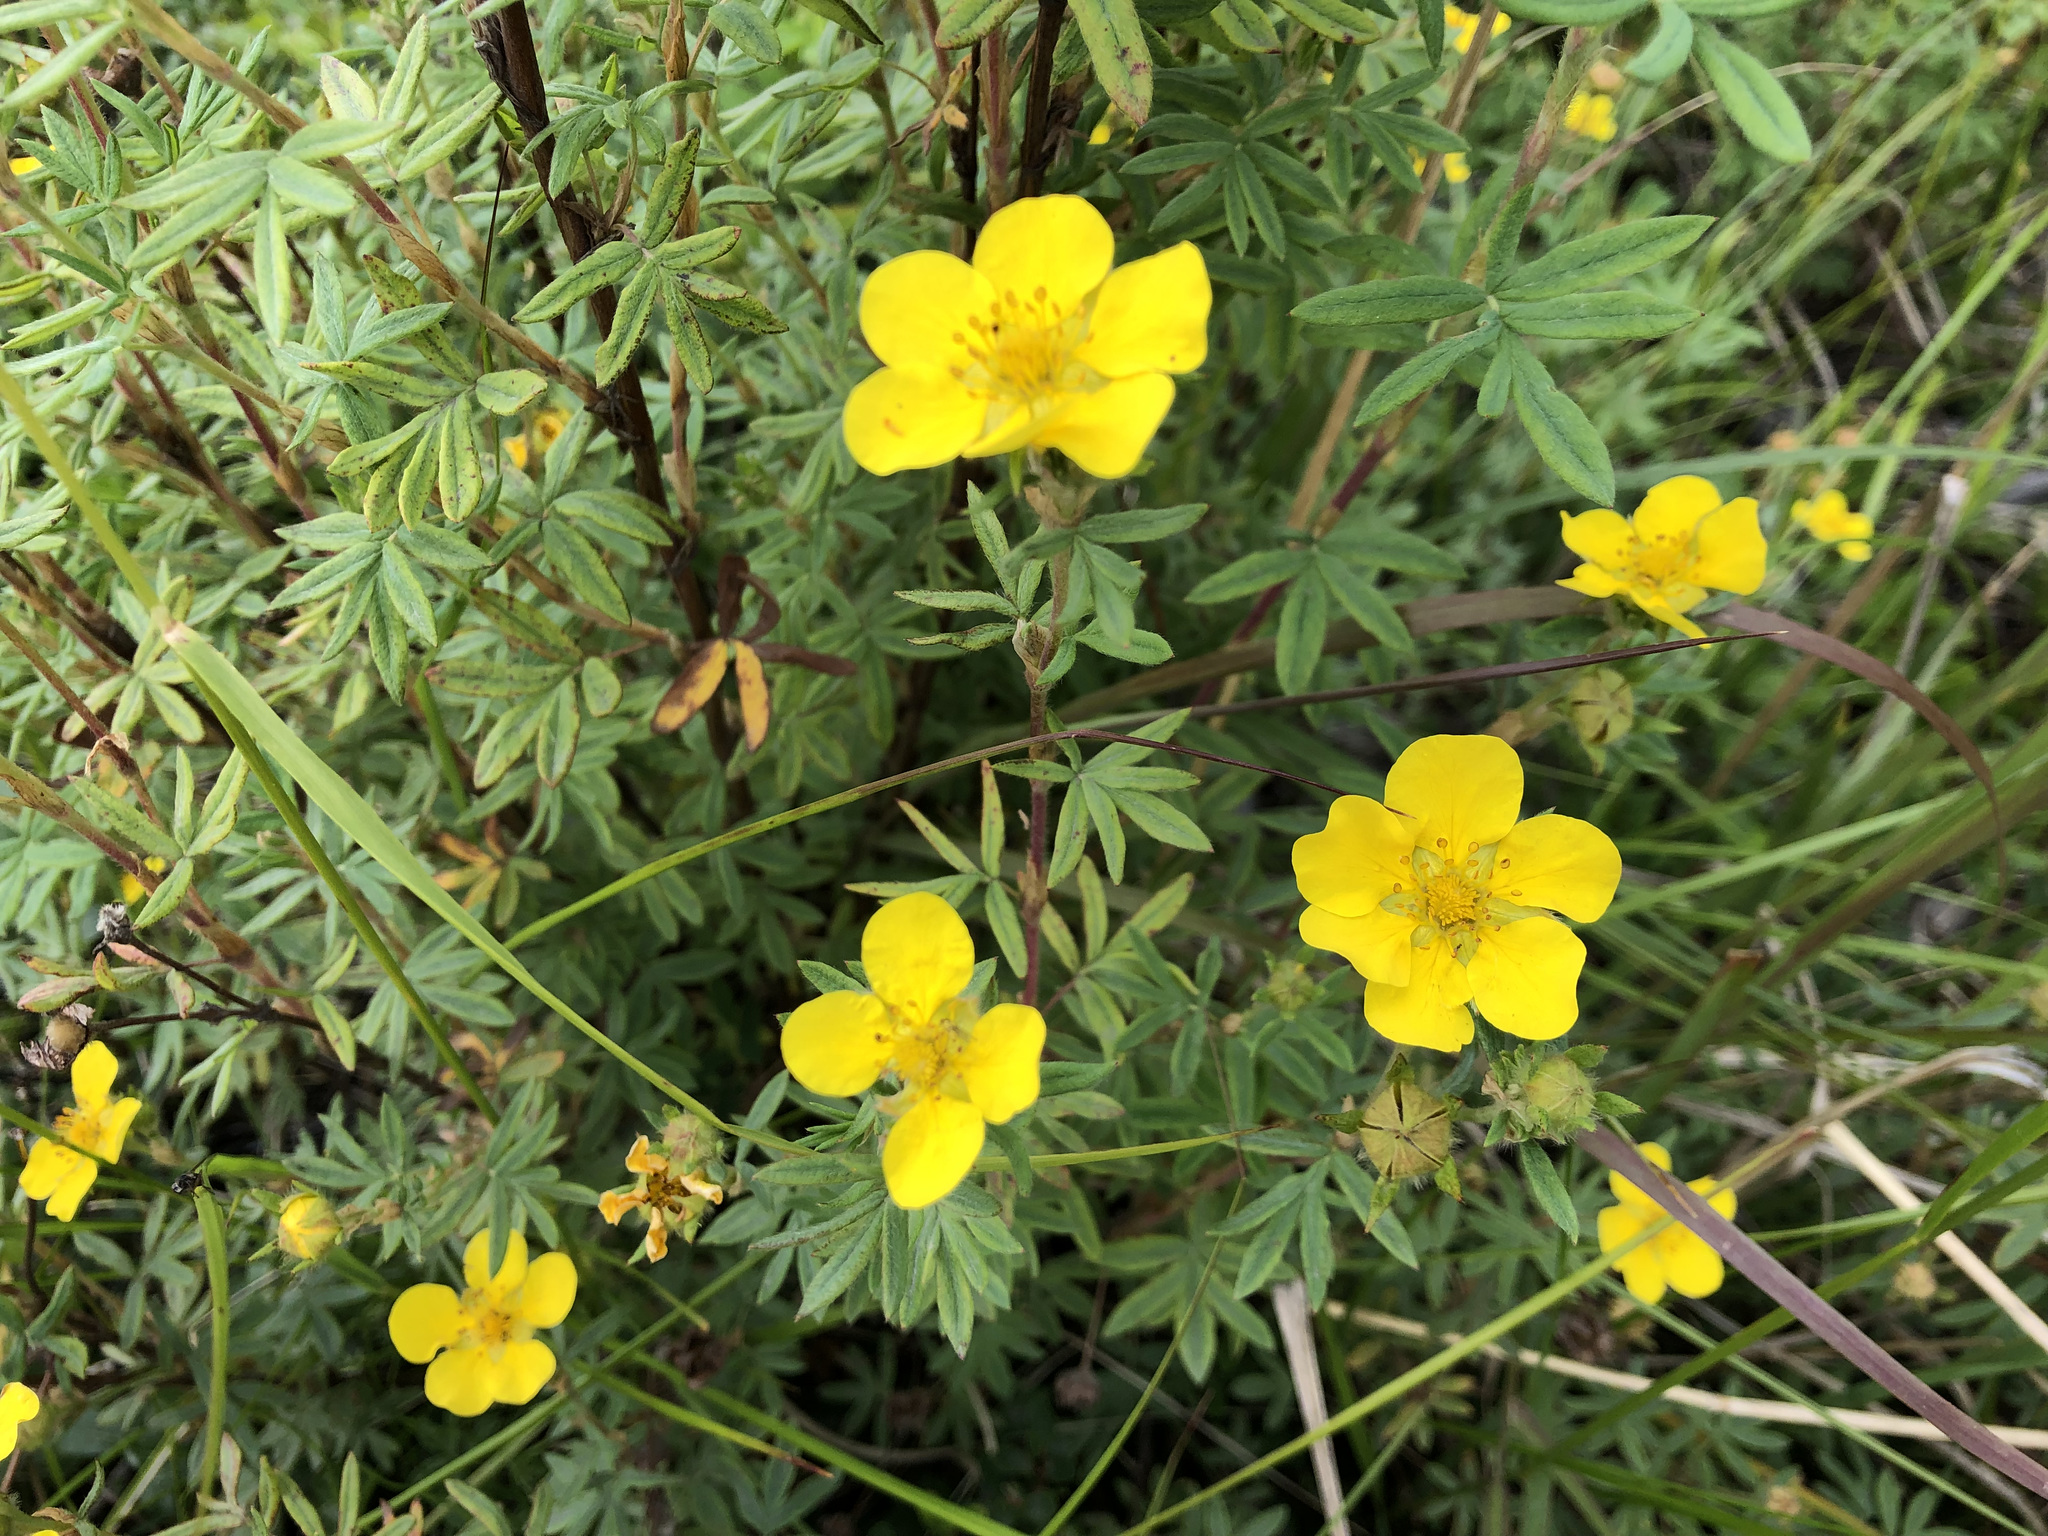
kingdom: Plantae
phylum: Tracheophyta
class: Magnoliopsida
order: Rosales
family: Rosaceae
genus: Dasiphora
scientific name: Dasiphora fruticosa
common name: Shrubby cinquefoil
